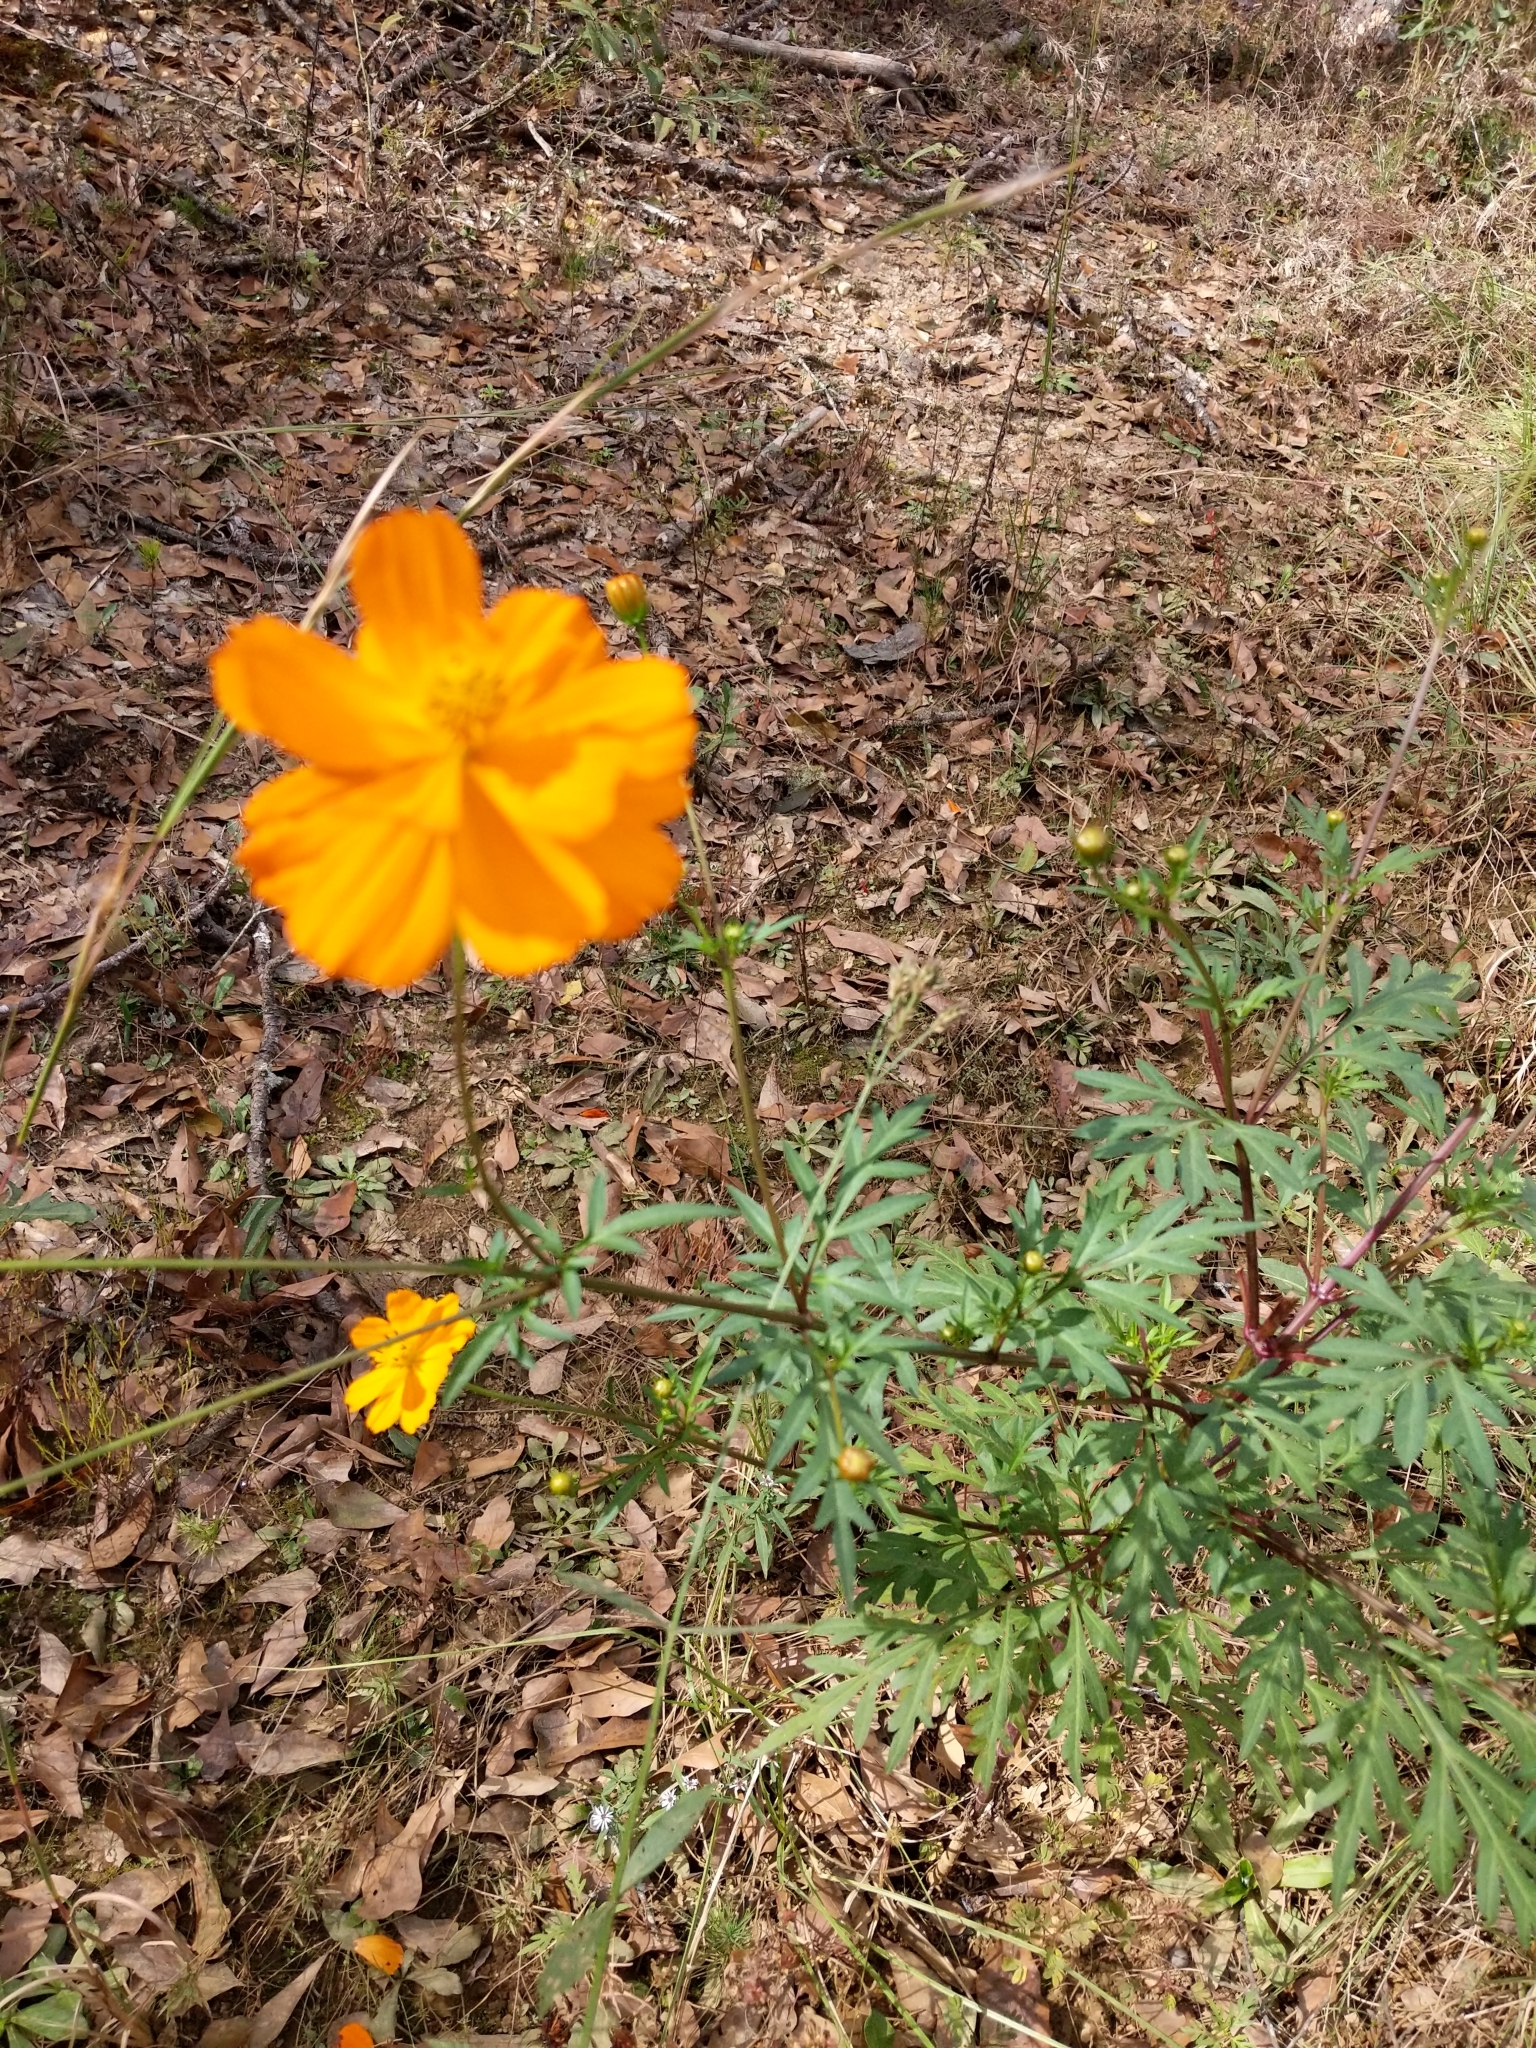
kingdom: Plantae
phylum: Tracheophyta
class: Magnoliopsida
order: Asterales
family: Asteraceae
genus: Cosmos
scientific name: Cosmos sulphureus
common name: Sulphur cosmos
